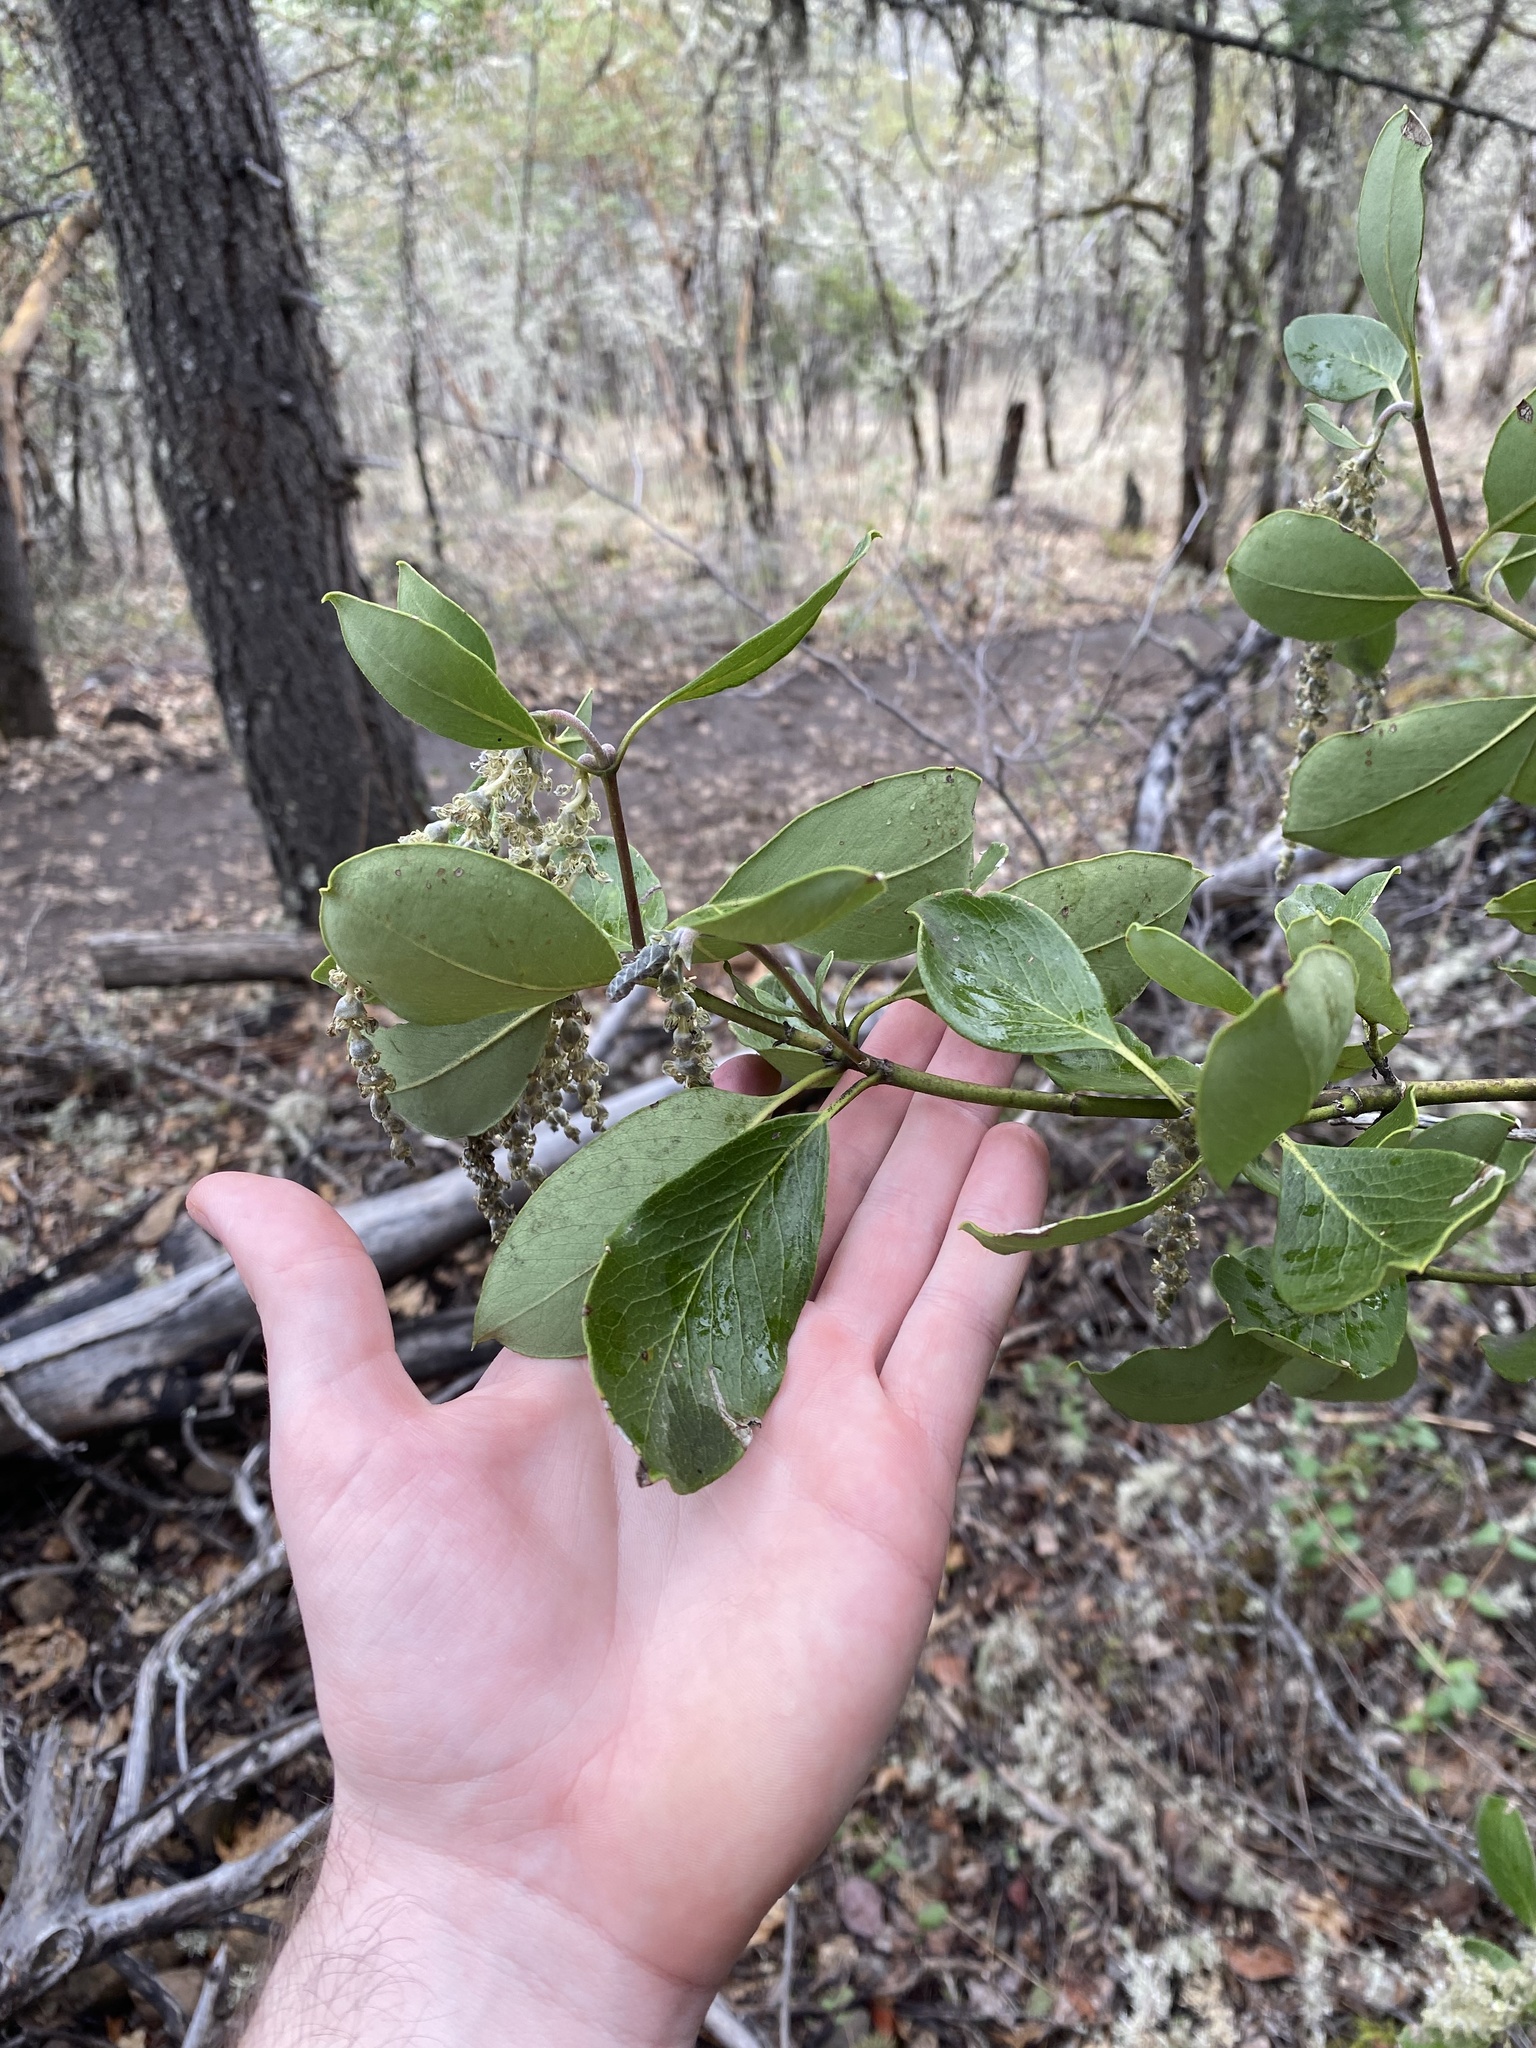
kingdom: Plantae
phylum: Tracheophyta
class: Magnoliopsida
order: Garryales
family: Garryaceae
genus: Garrya
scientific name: Garrya fremontii
